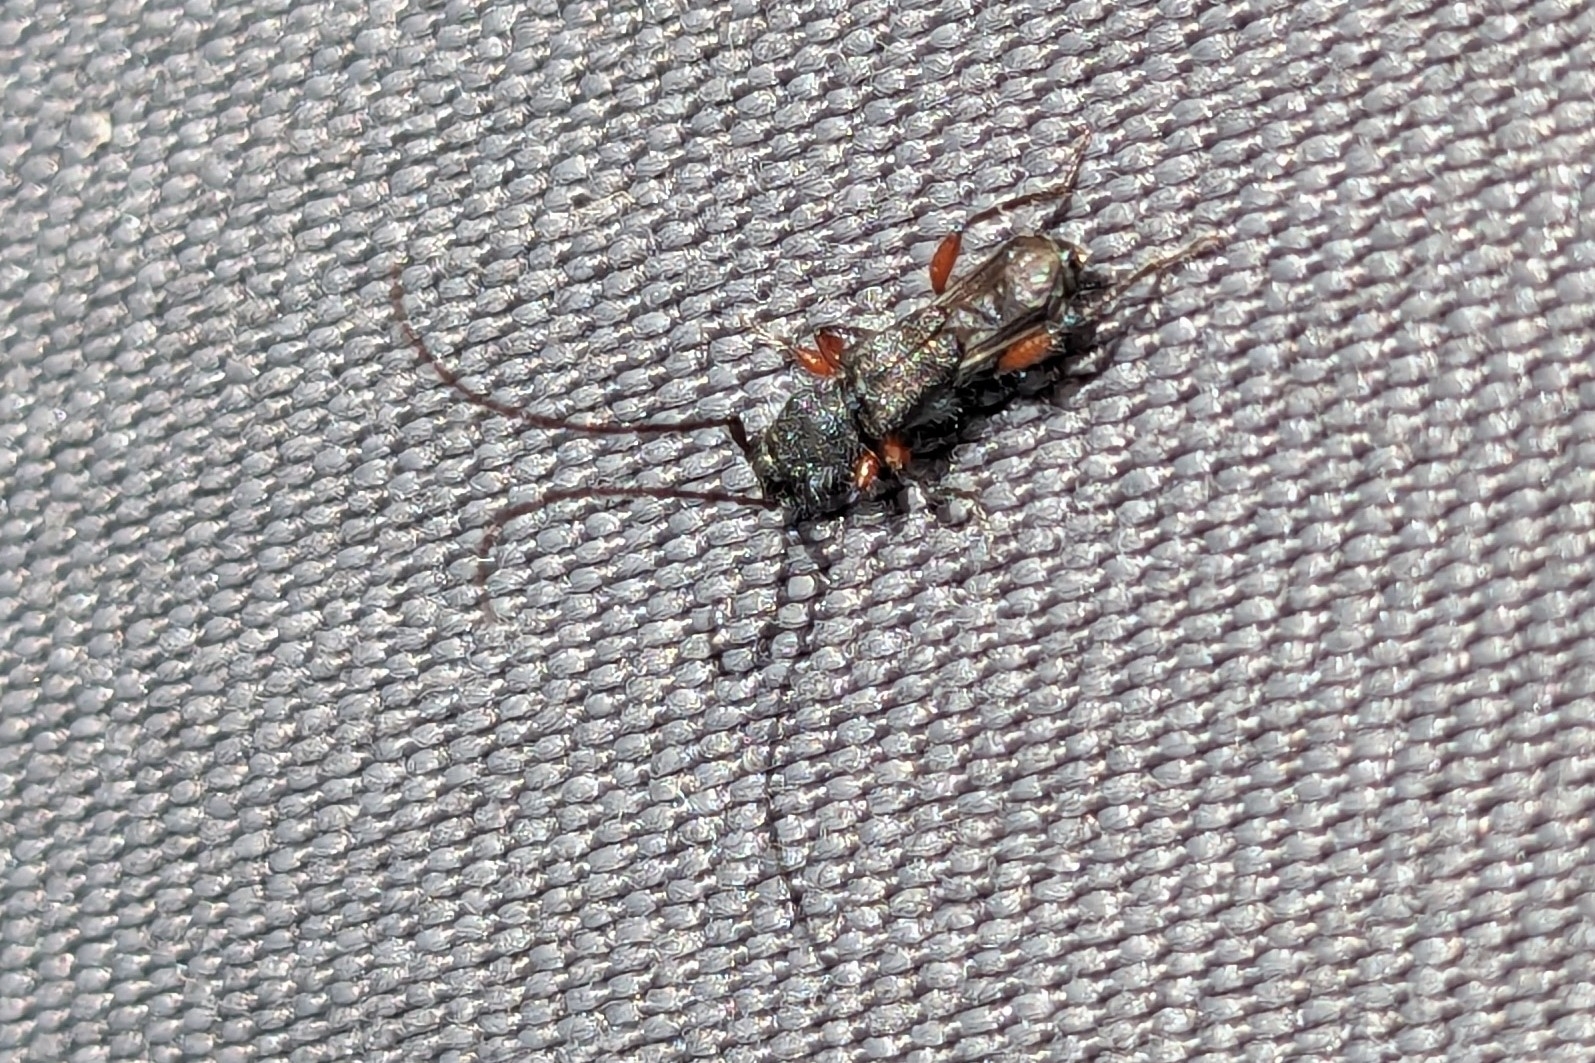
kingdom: Animalia
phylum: Arthropoda
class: Insecta
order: Coleoptera
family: Cerambycidae
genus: Molorchus
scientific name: Molorchus bimaculatus
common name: Bimaculate longhorn beetle
